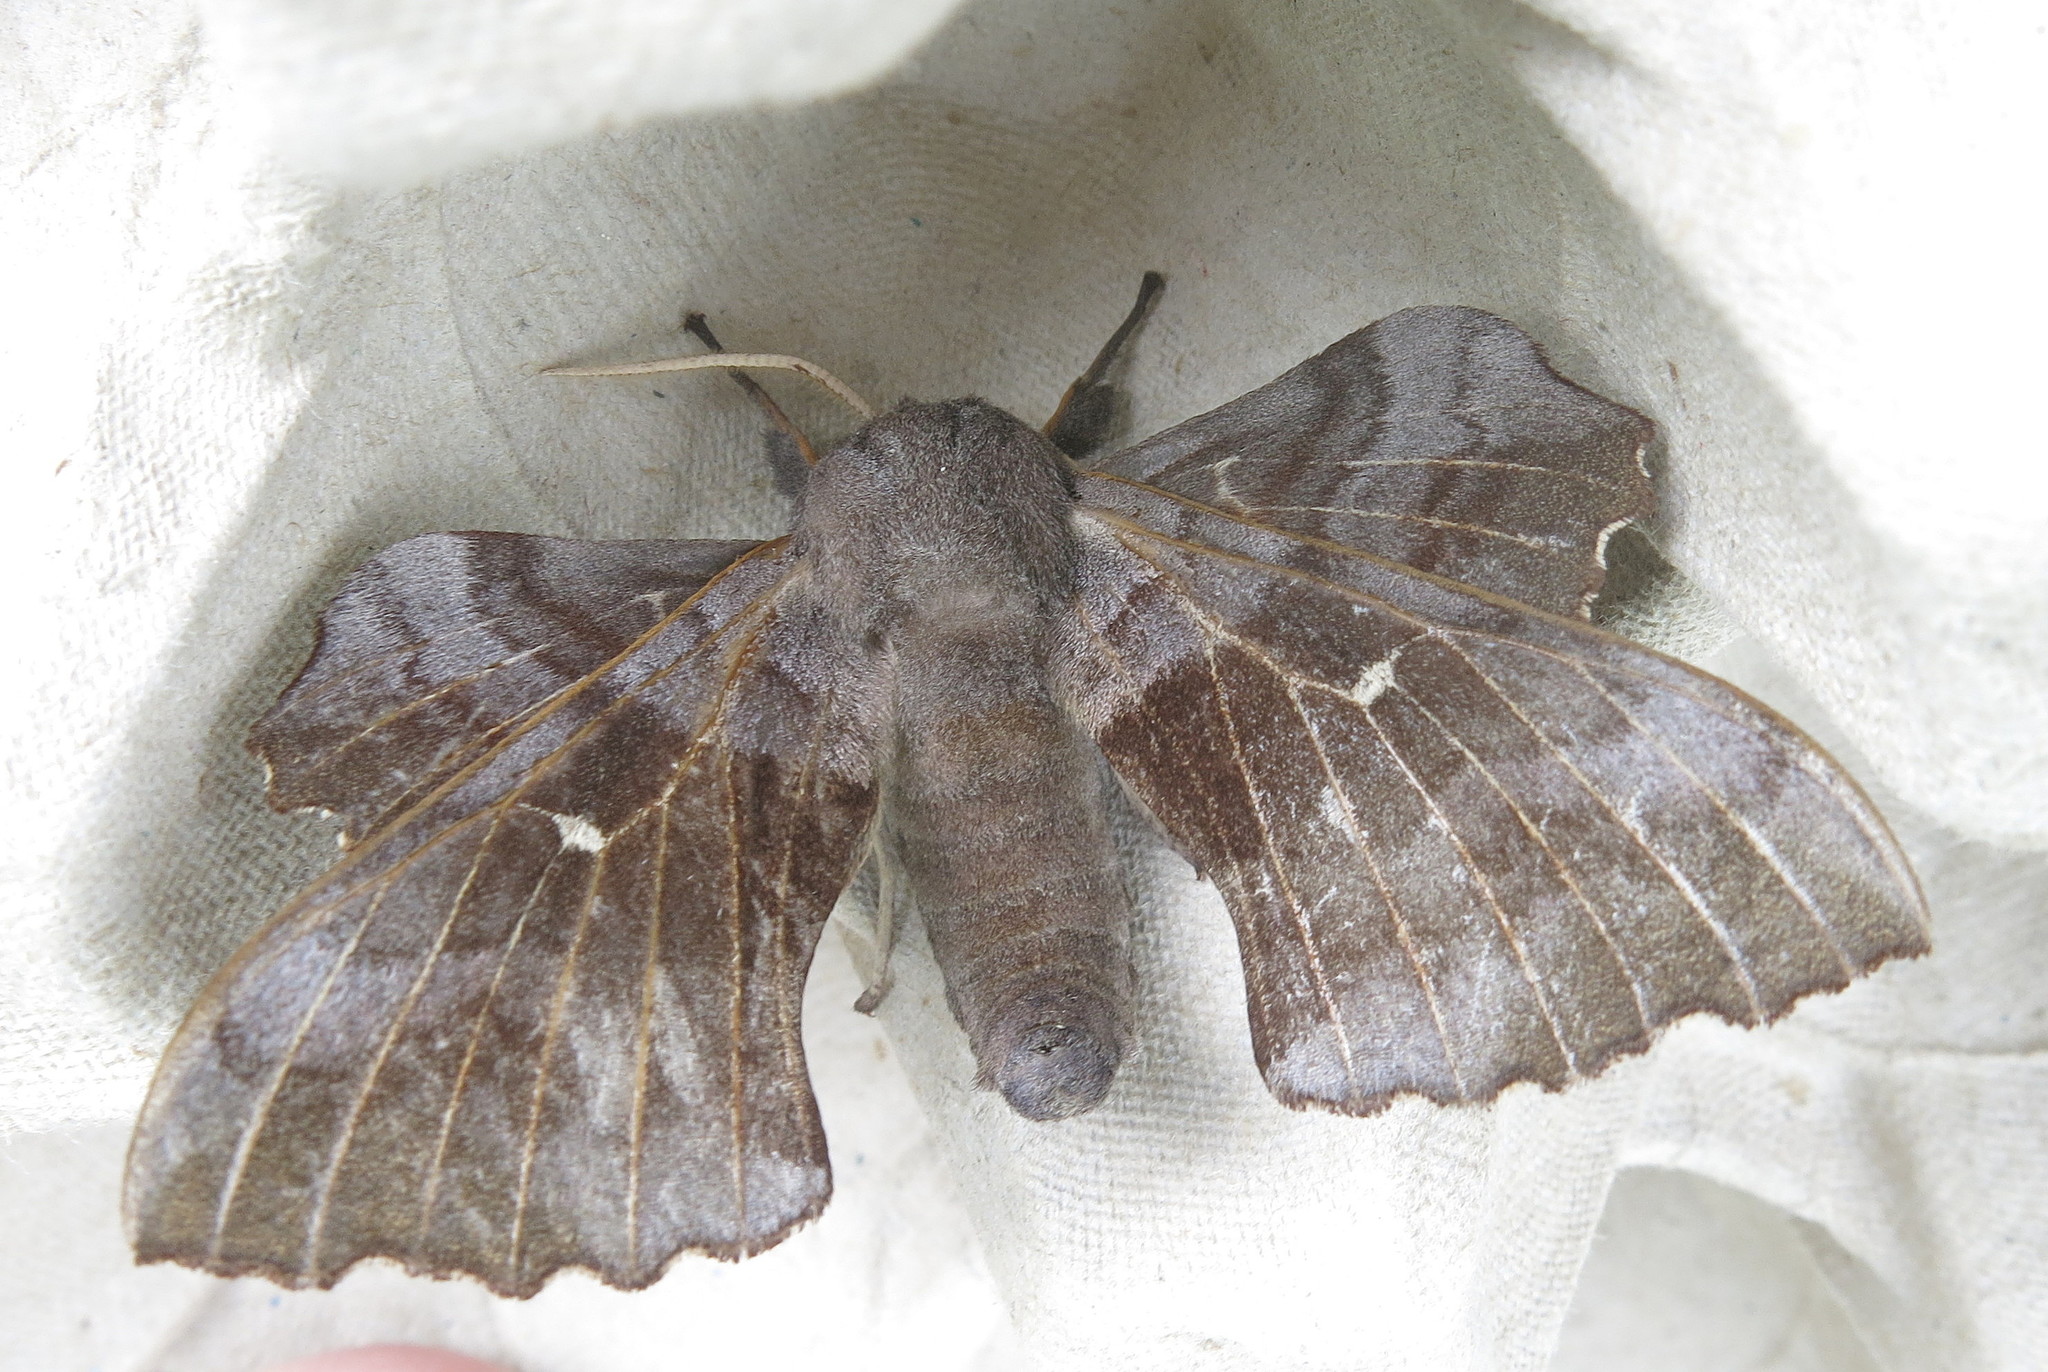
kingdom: Animalia
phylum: Arthropoda
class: Insecta
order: Lepidoptera
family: Sphingidae
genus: Laothoe
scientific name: Laothoe populi
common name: Poplar hawk-moth
